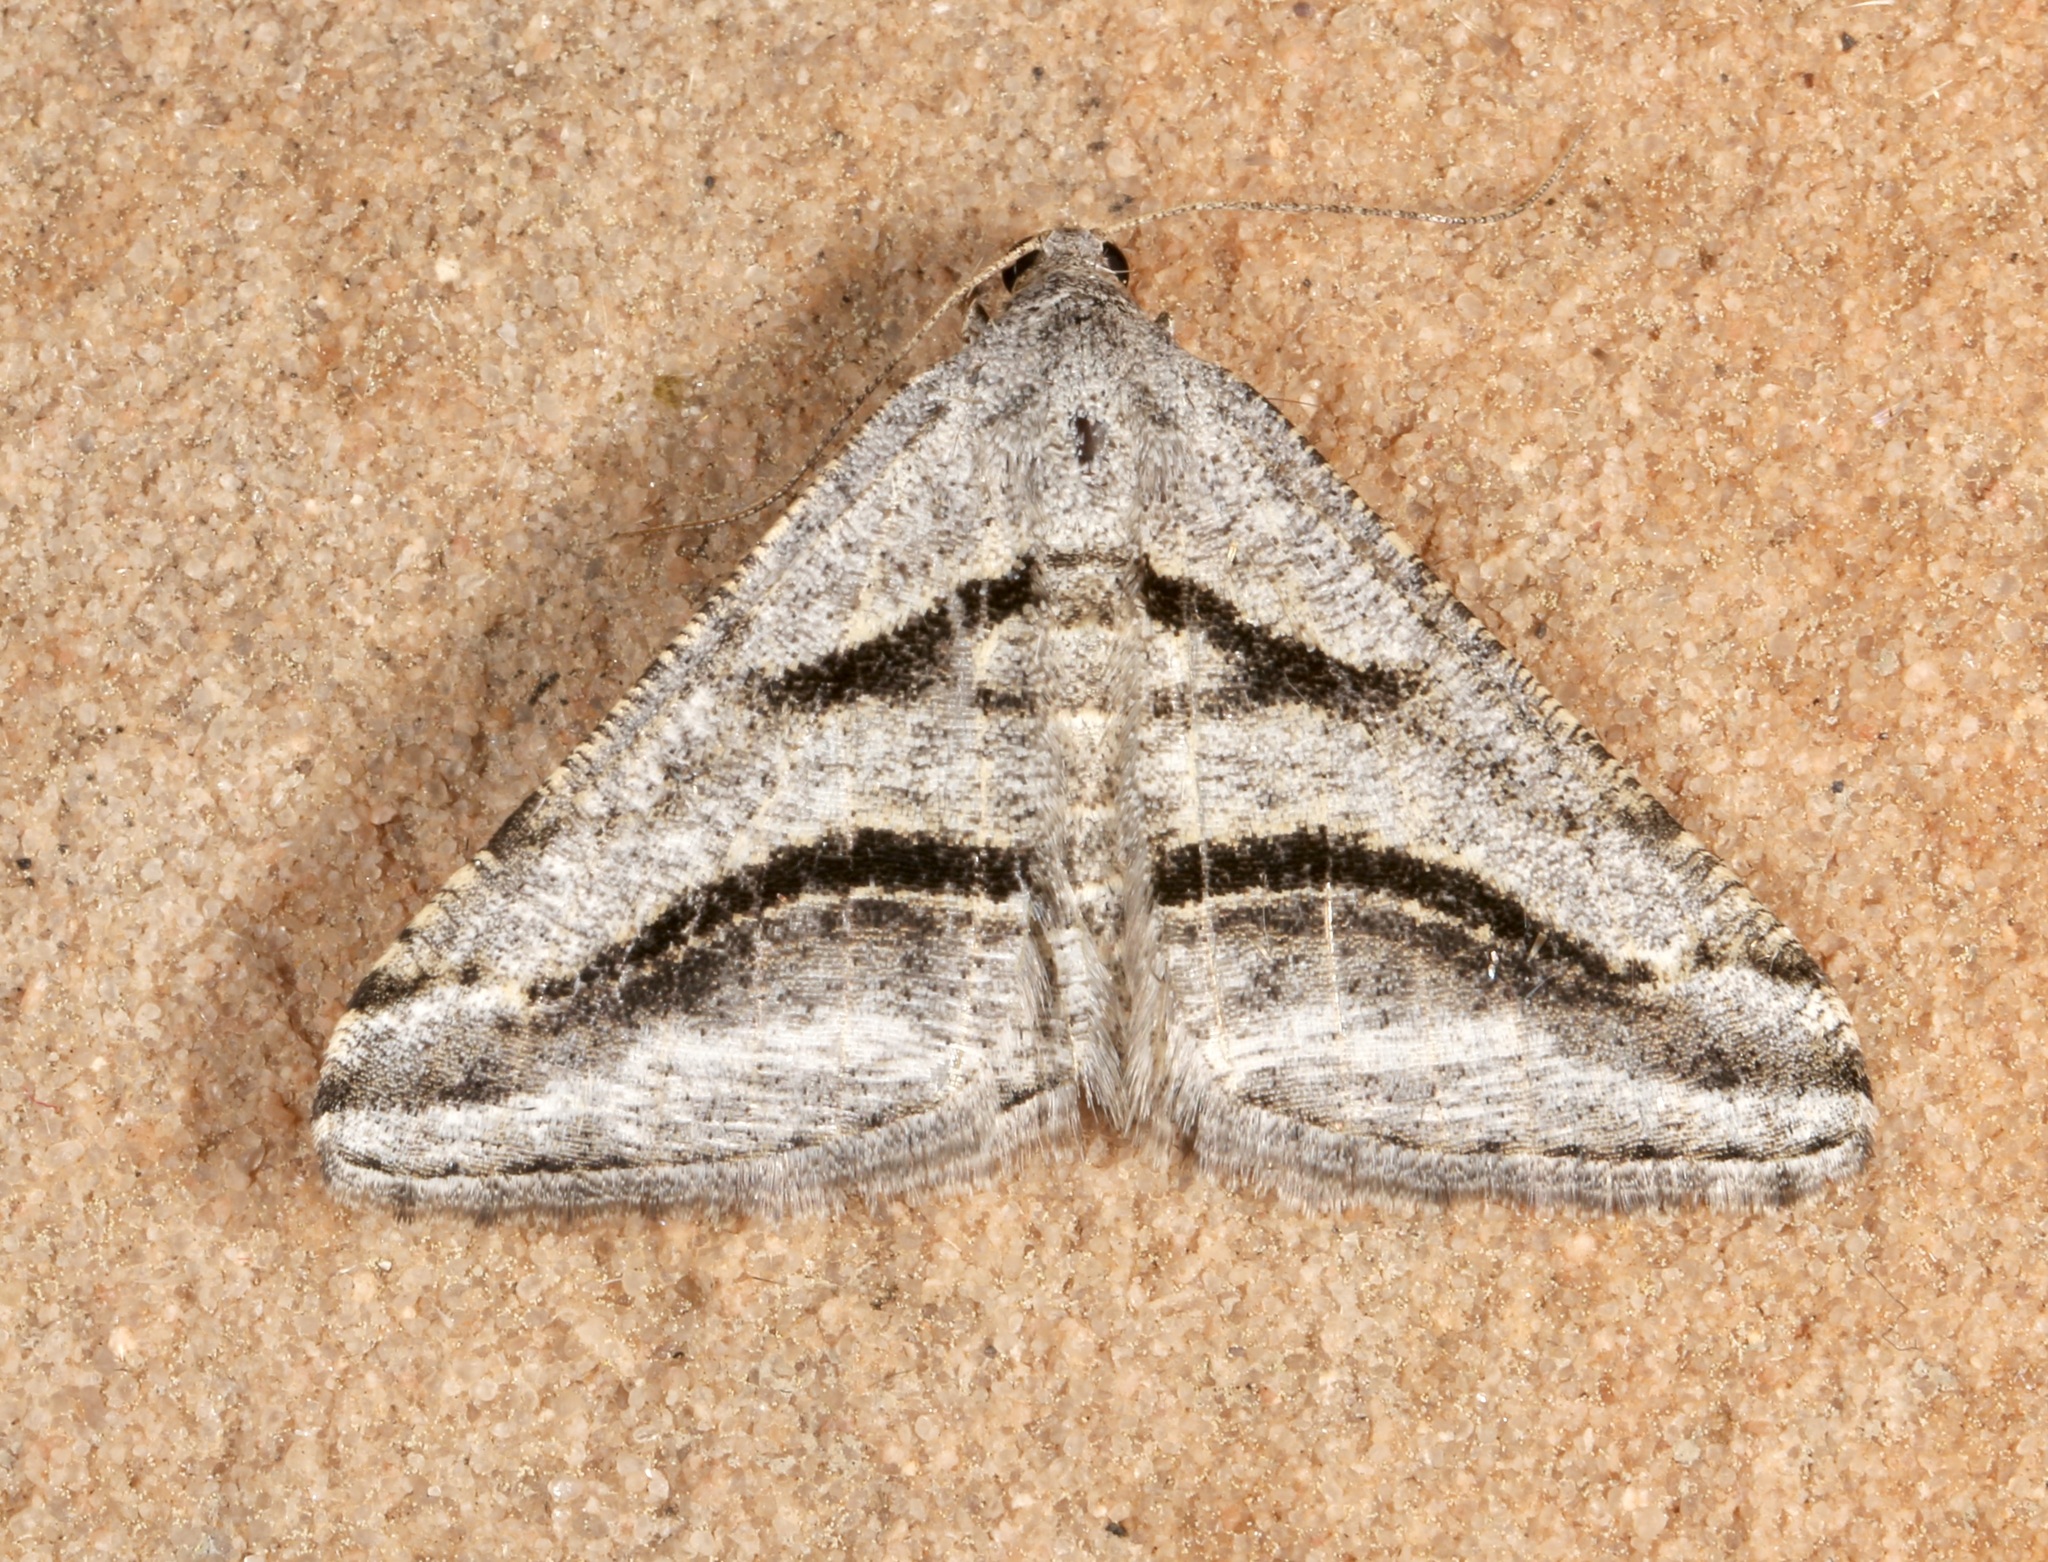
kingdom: Animalia
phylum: Arthropoda
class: Insecta
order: Lepidoptera
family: Geometridae
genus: Digrammia
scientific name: Digrammia curvata
